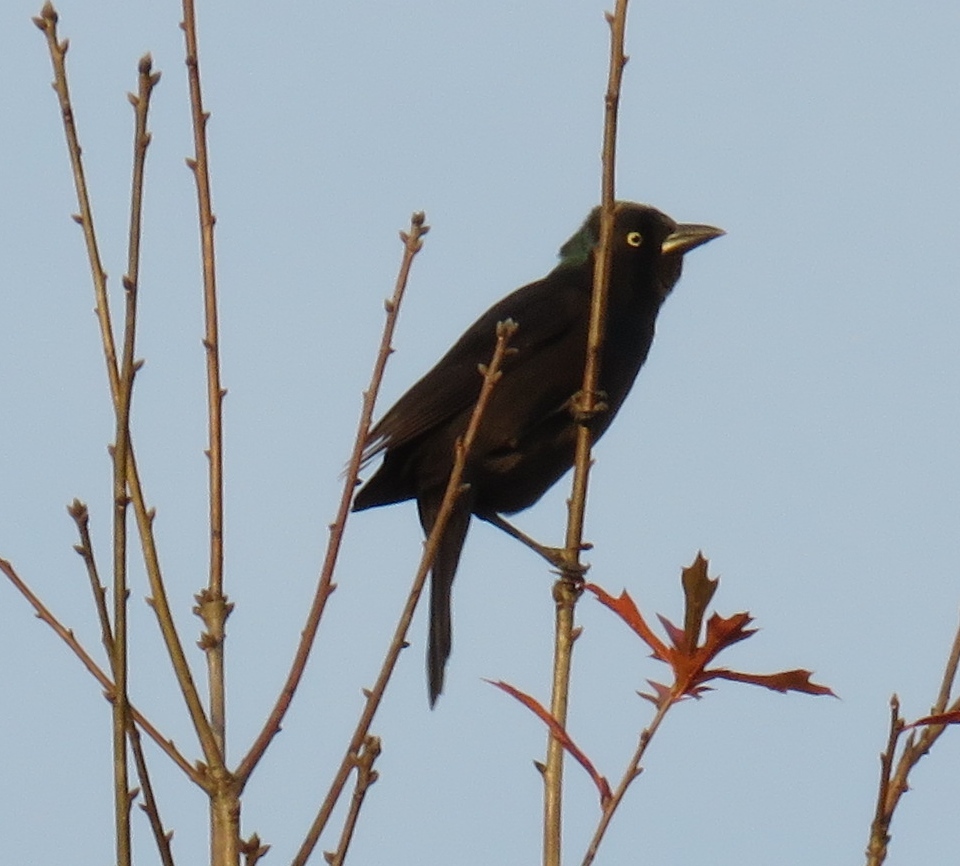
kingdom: Animalia
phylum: Chordata
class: Aves
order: Passeriformes
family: Icteridae
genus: Quiscalus
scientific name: Quiscalus quiscula
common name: Common grackle
